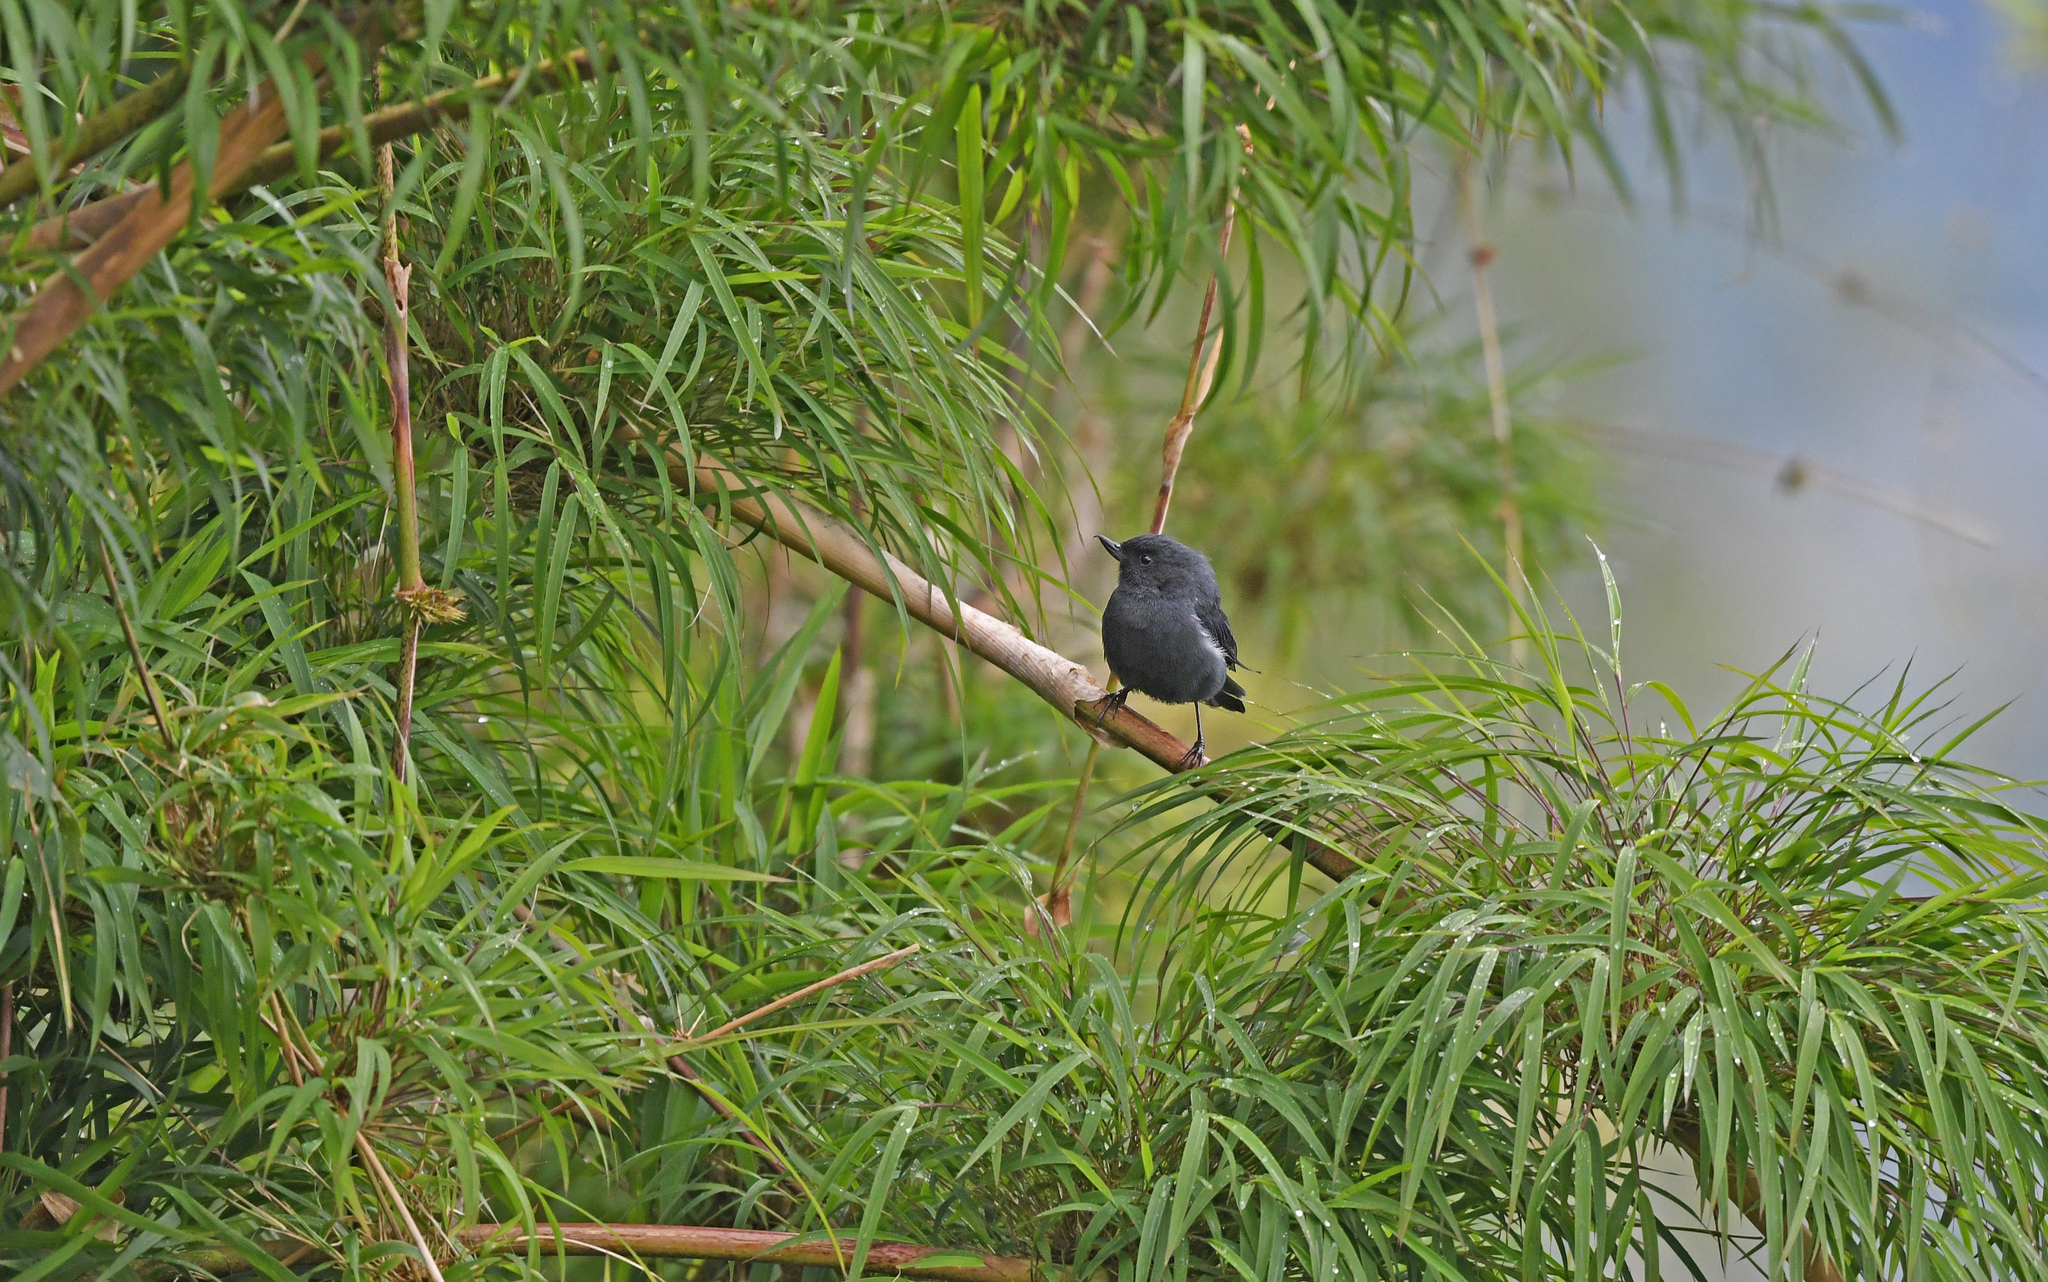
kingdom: Animalia
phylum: Chordata
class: Aves
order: Passeriformes
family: Thraupidae
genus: Diglossa
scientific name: Diglossa albilatera
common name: White-sided flowerpiercer
